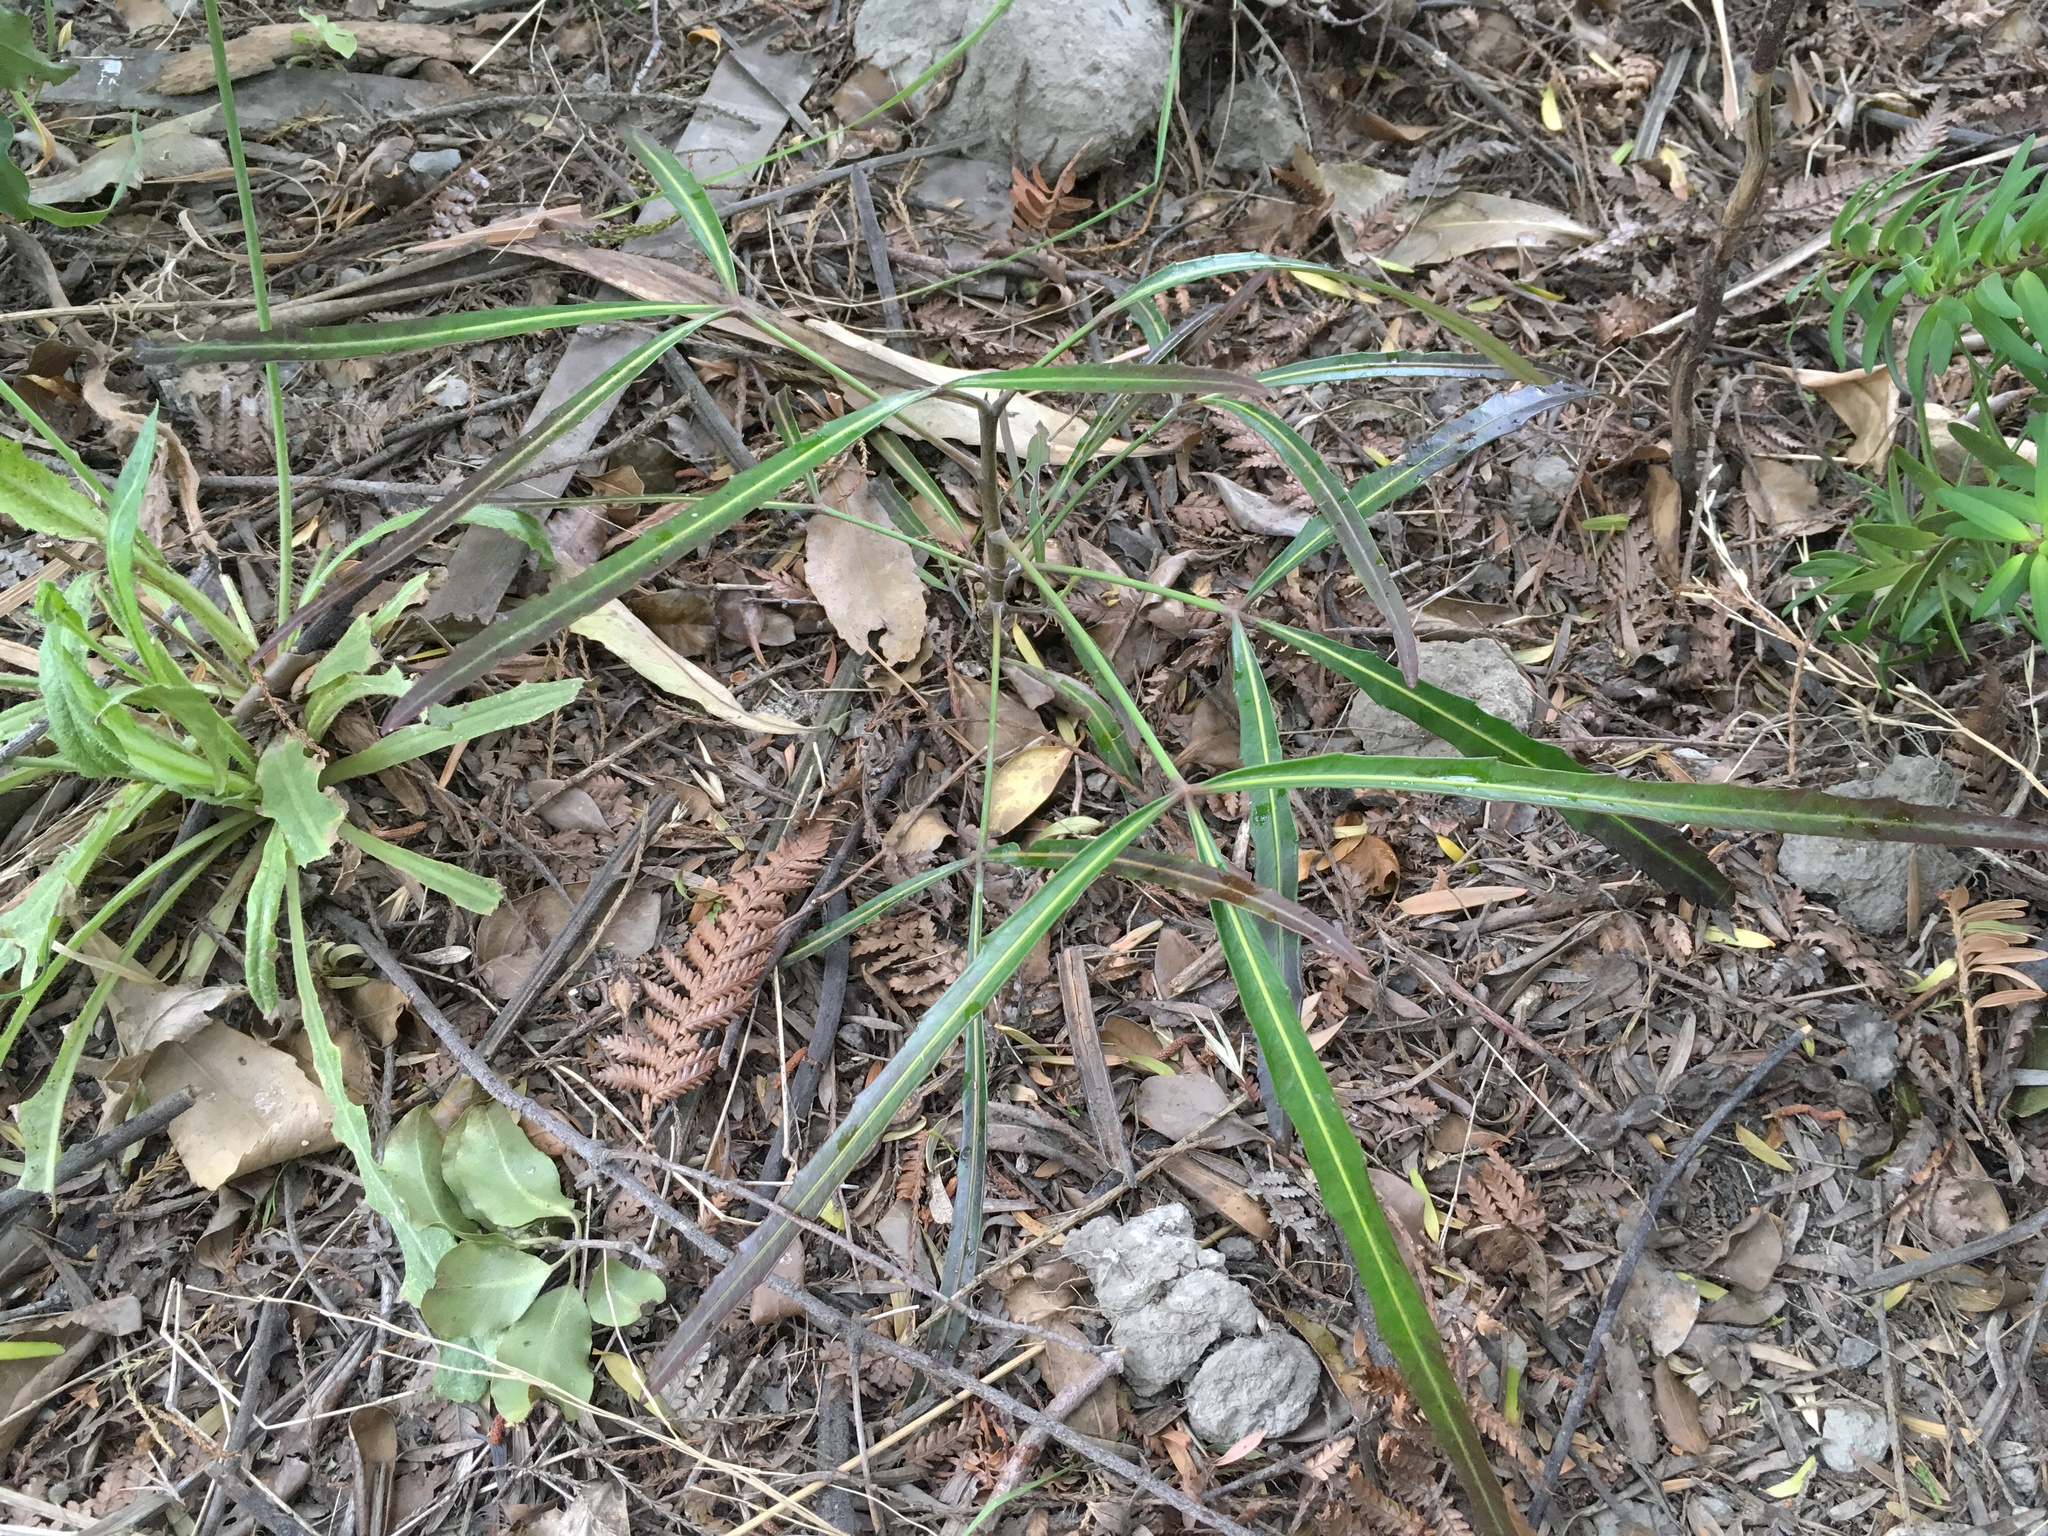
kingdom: Plantae
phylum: Tracheophyta
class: Magnoliopsida
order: Apiales
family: Araliaceae
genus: Pseudopanax
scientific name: Pseudopanax
